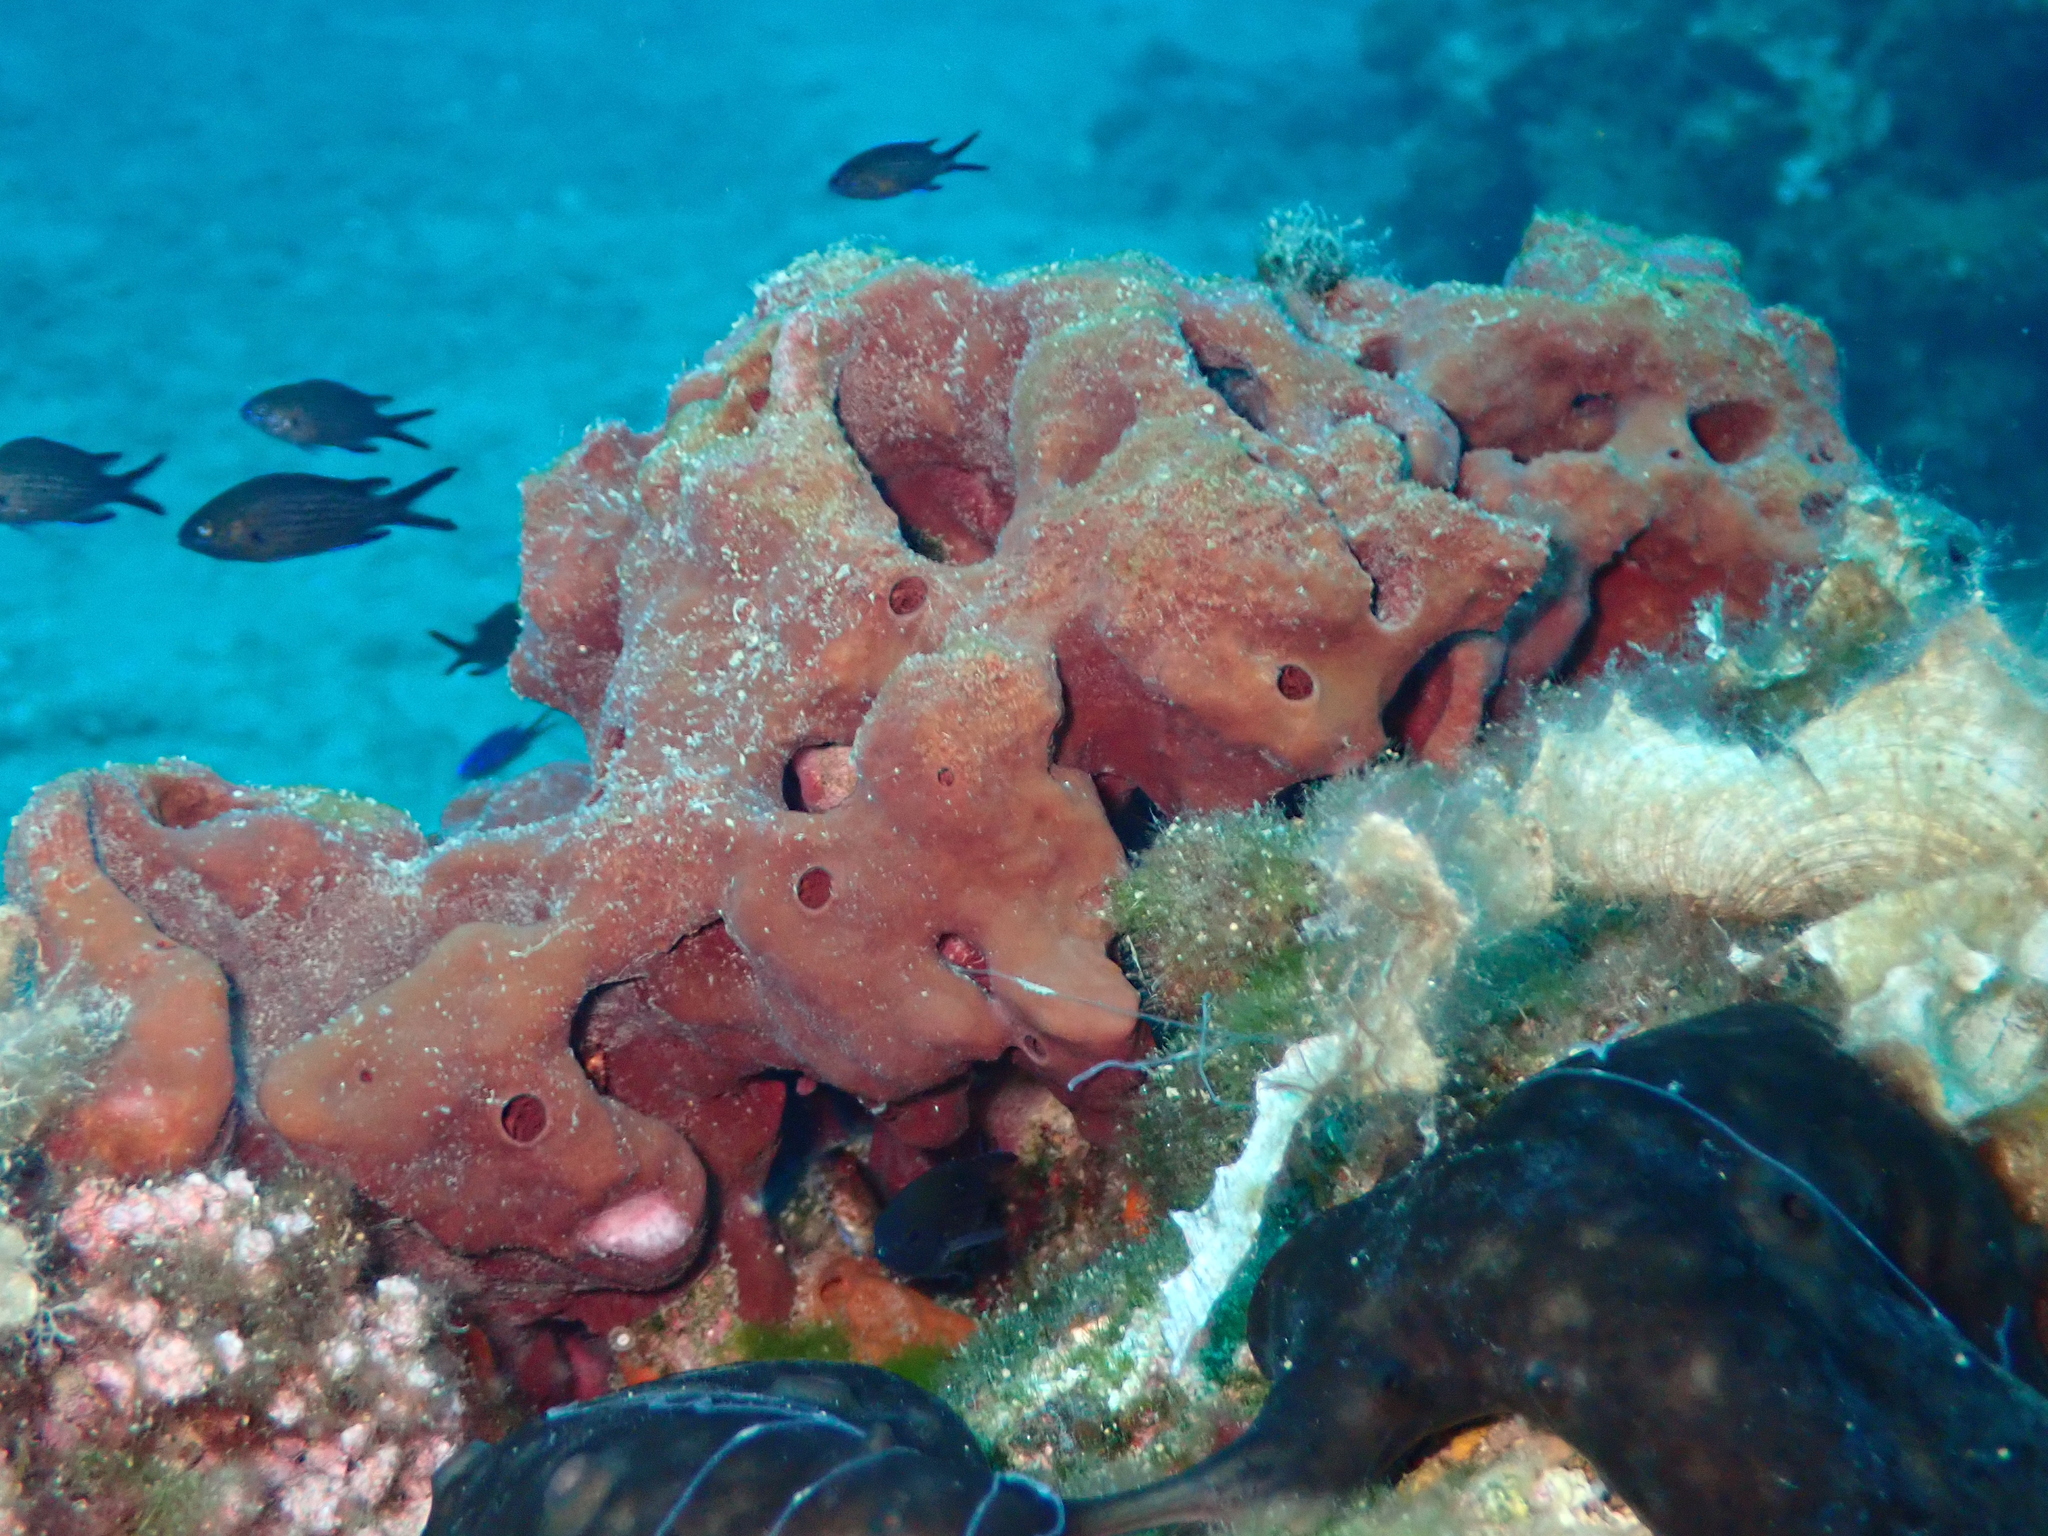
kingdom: Animalia
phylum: Porifera
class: Demospongiae
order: Haplosclerida
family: Petrosiidae
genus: Petrosia
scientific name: Petrosia ficiformis
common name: Stony sponge
